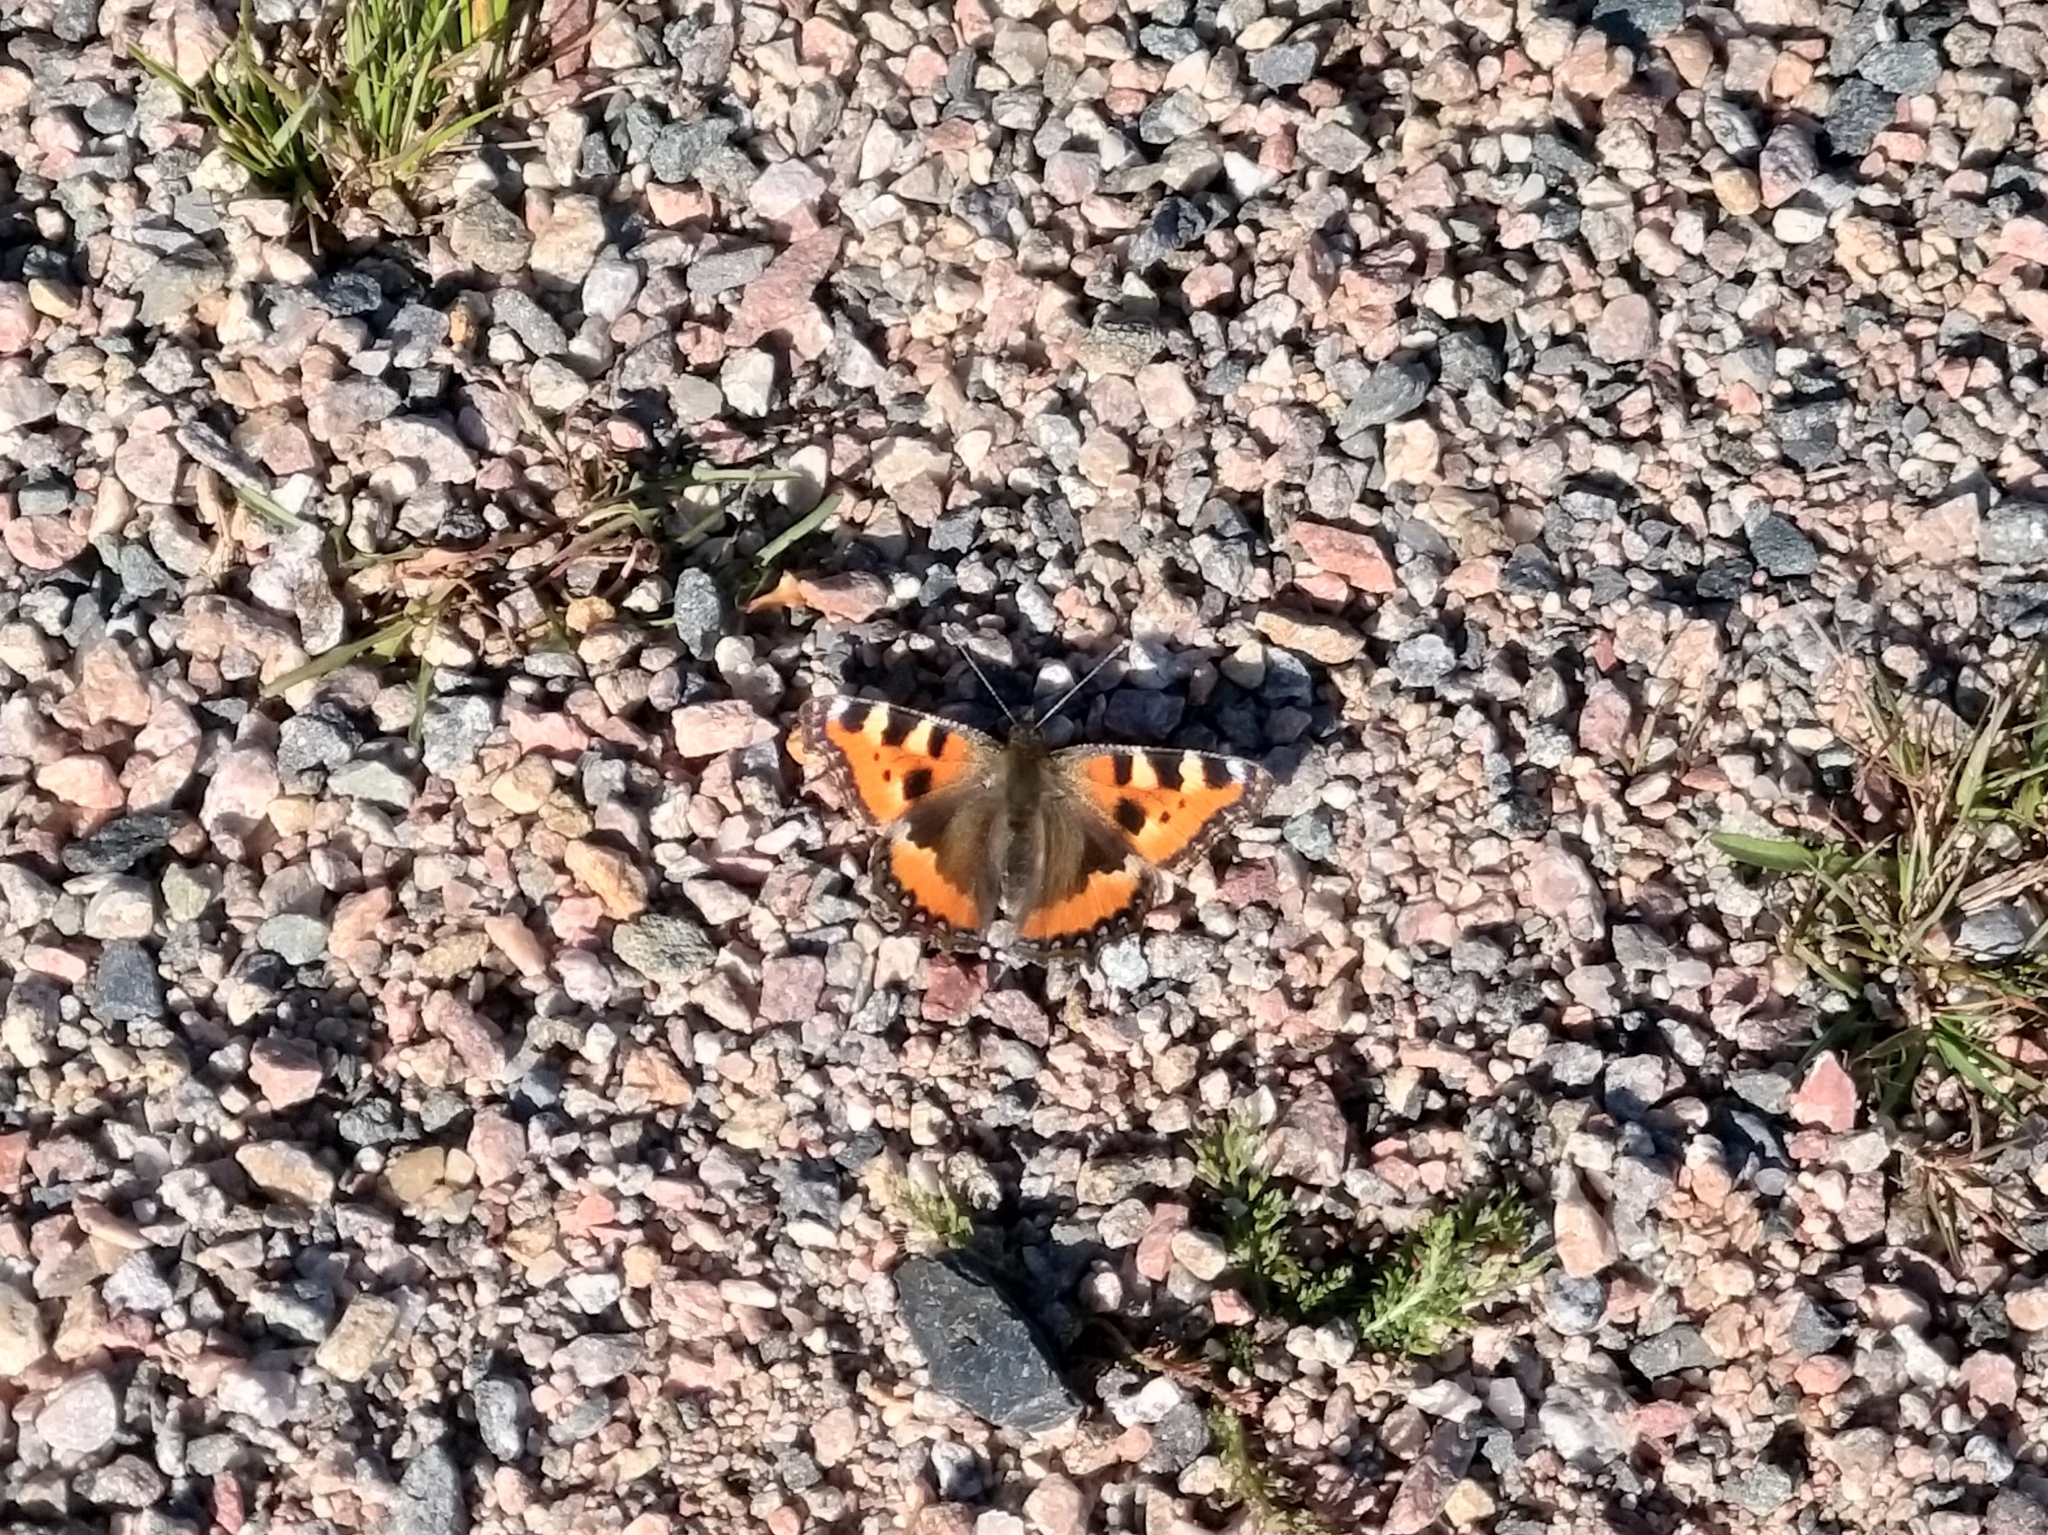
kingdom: Animalia
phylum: Arthropoda
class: Insecta
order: Lepidoptera
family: Nymphalidae
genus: Aglais
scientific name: Aglais urticae
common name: Small tortoiseshell
